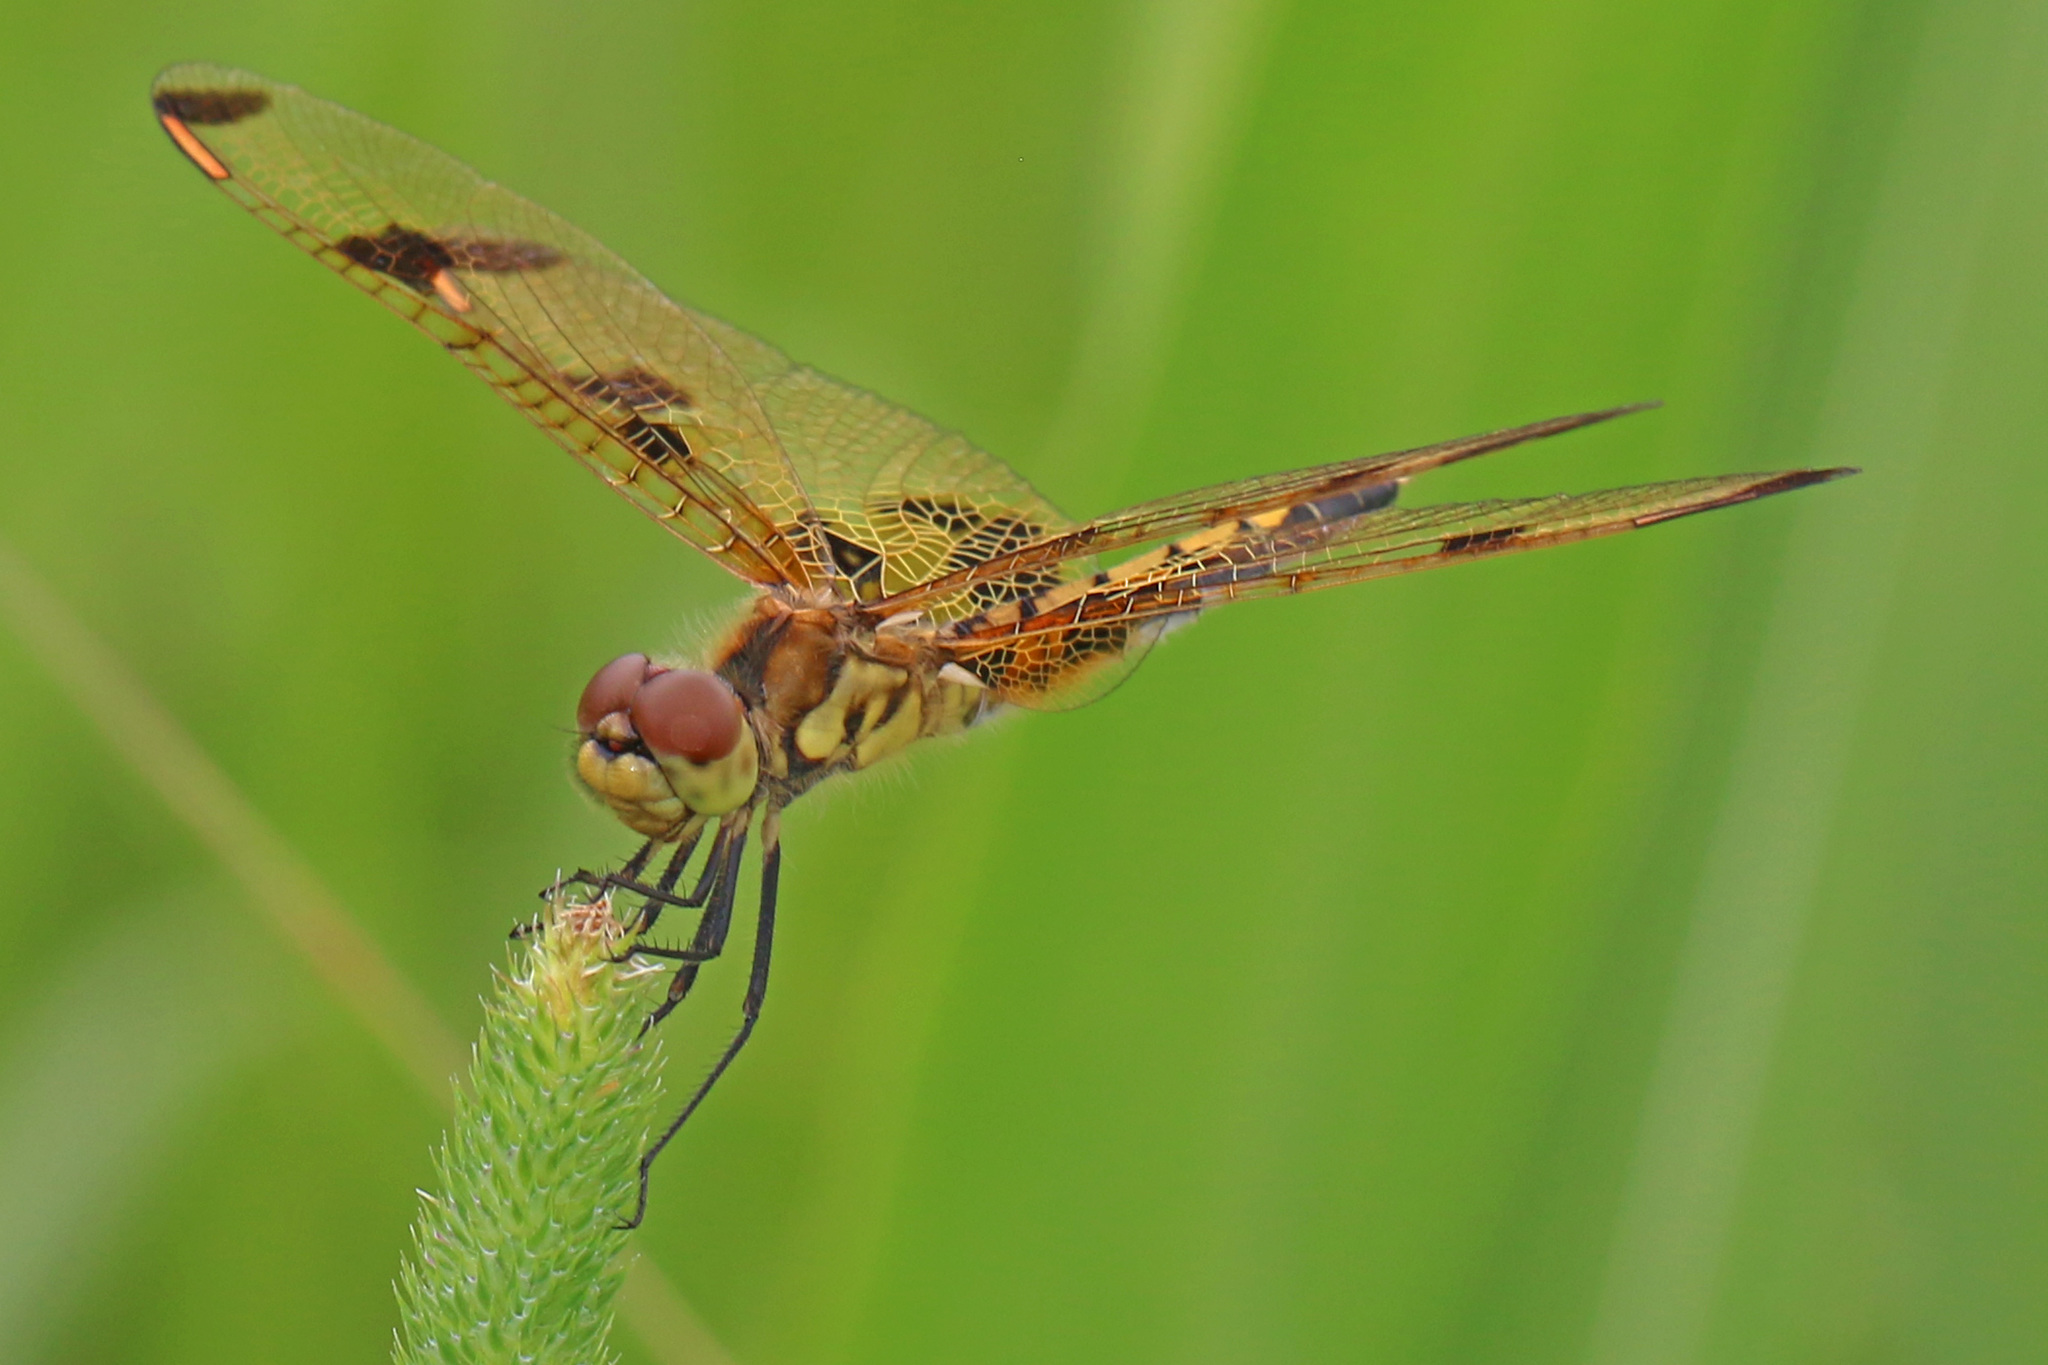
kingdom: Animalia
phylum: Arthropoda
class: Insecta
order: Odonata
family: Libellulidae
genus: Celithemis
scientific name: Celithemis elisa
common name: Calico pennant
